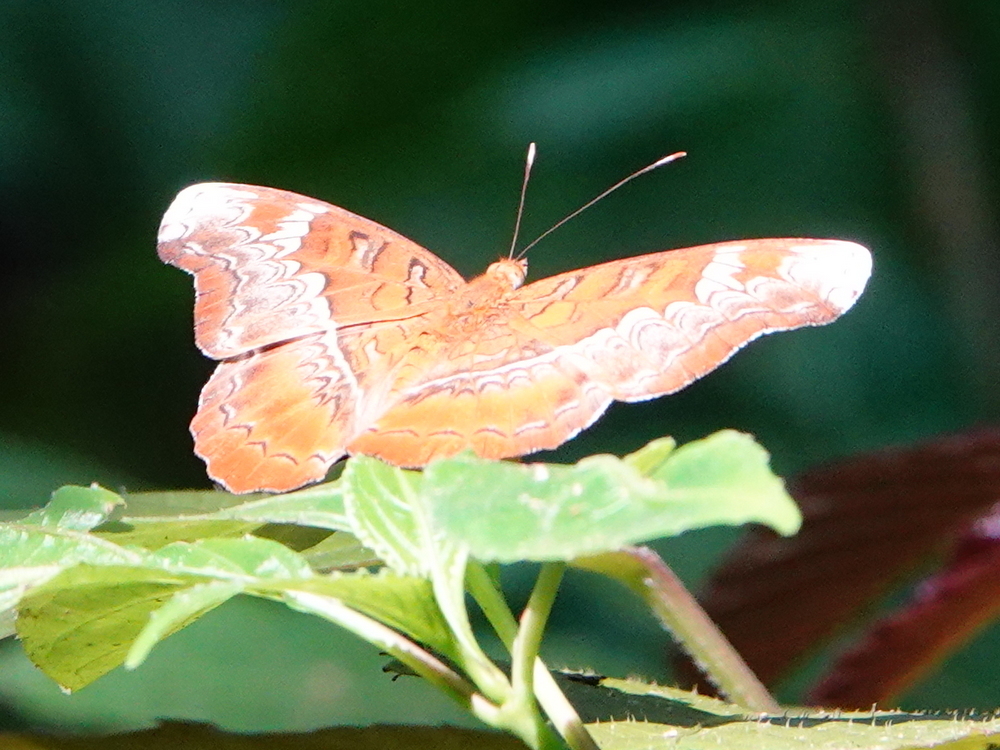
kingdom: Animalia
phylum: Arthropoda
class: Insecta
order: Lepidoptera
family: Nymphalidae
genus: Lebadea
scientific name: Lebadea martha
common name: Knight
